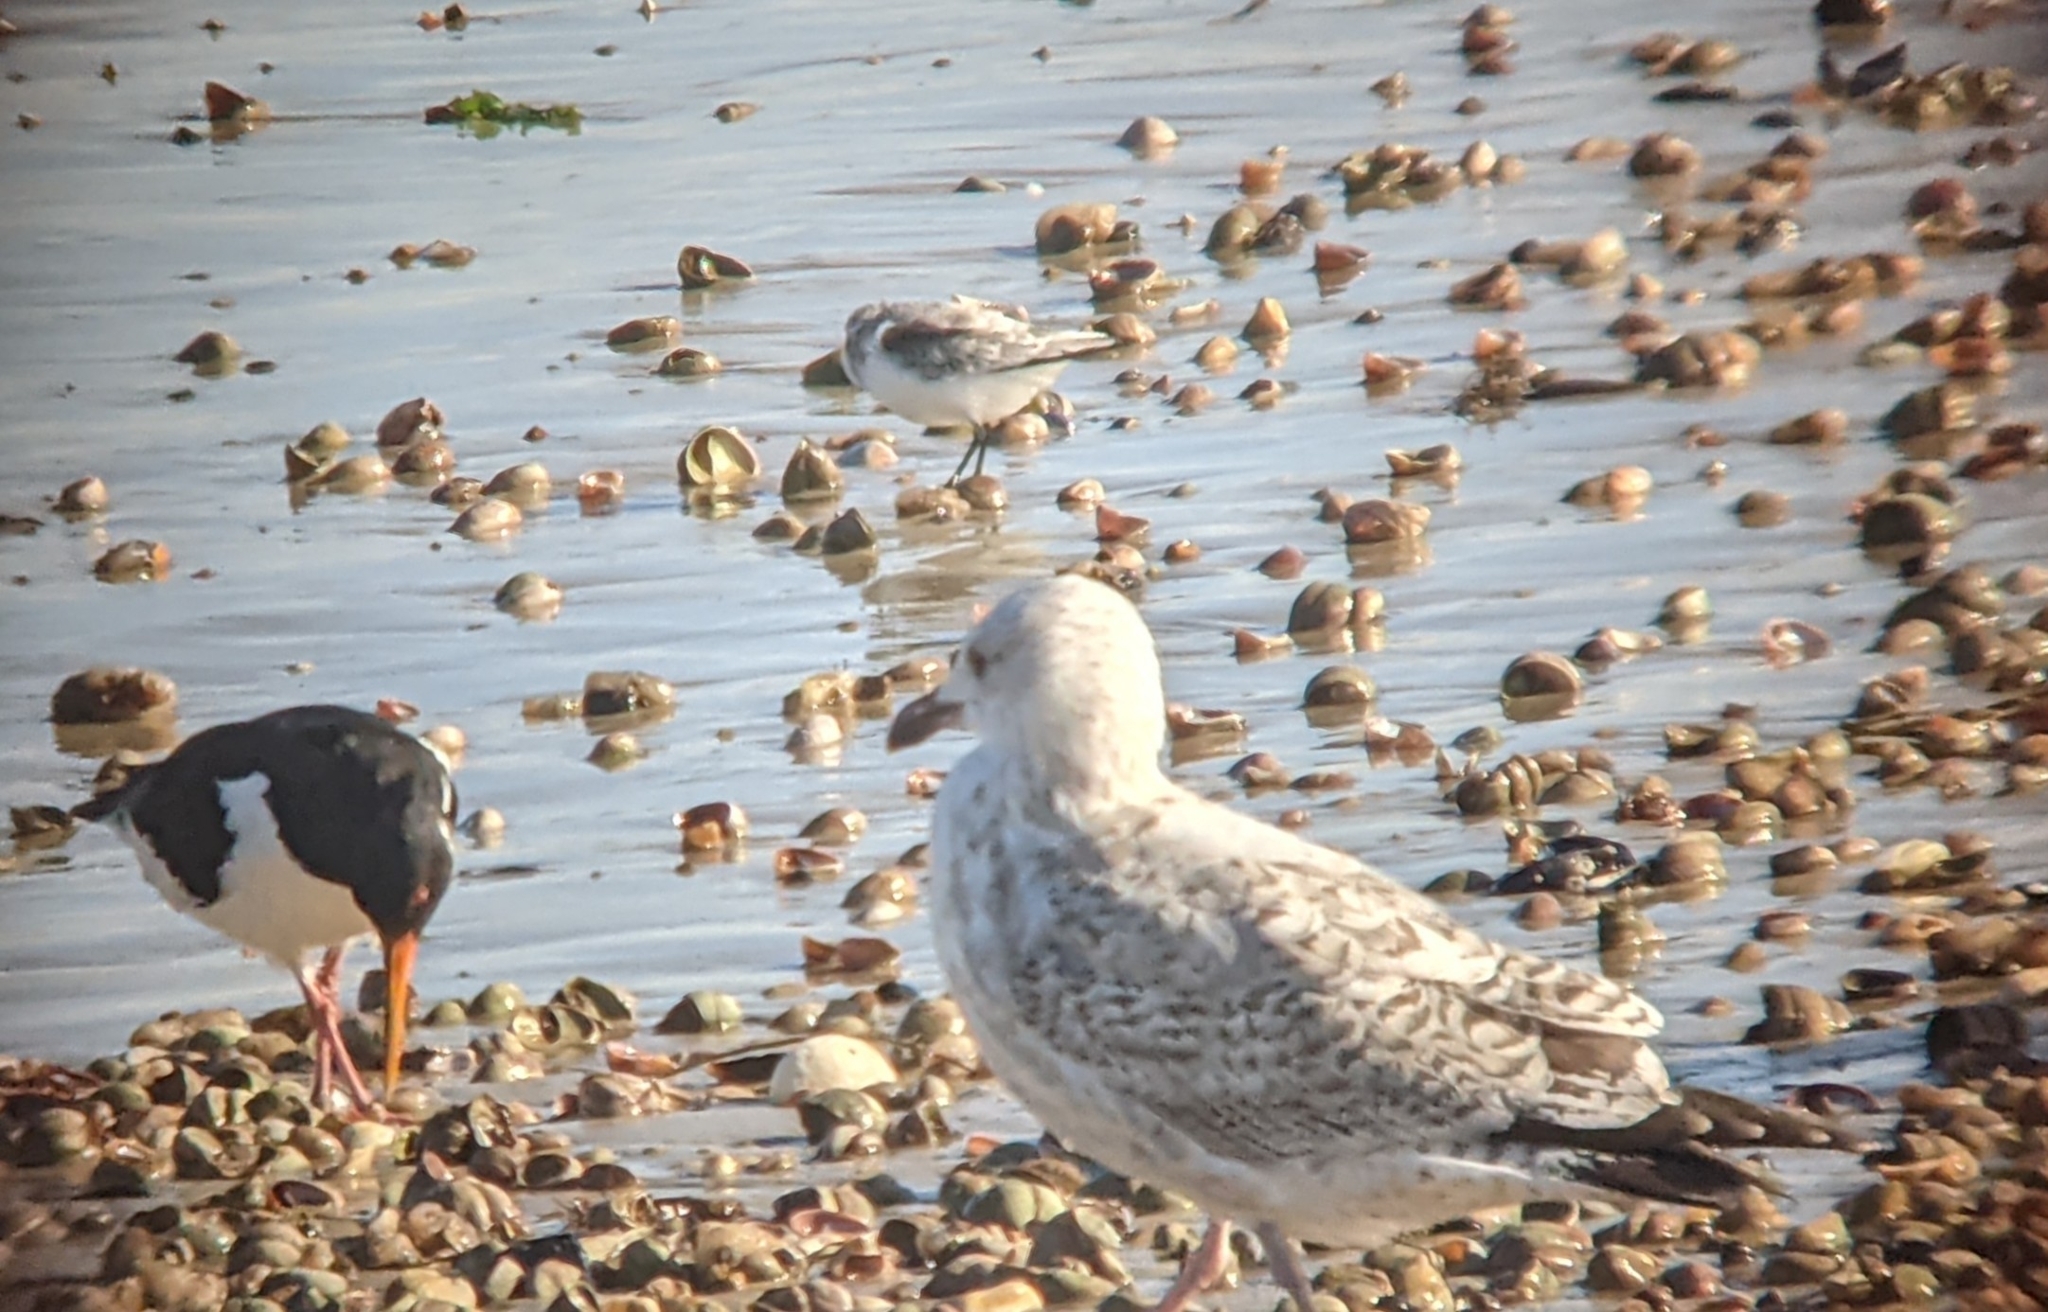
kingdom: Animalia
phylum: Chordata
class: Aves
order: Charadriiformes
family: Laridae
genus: Larus
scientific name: Larus argentatus
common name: Herring gull
